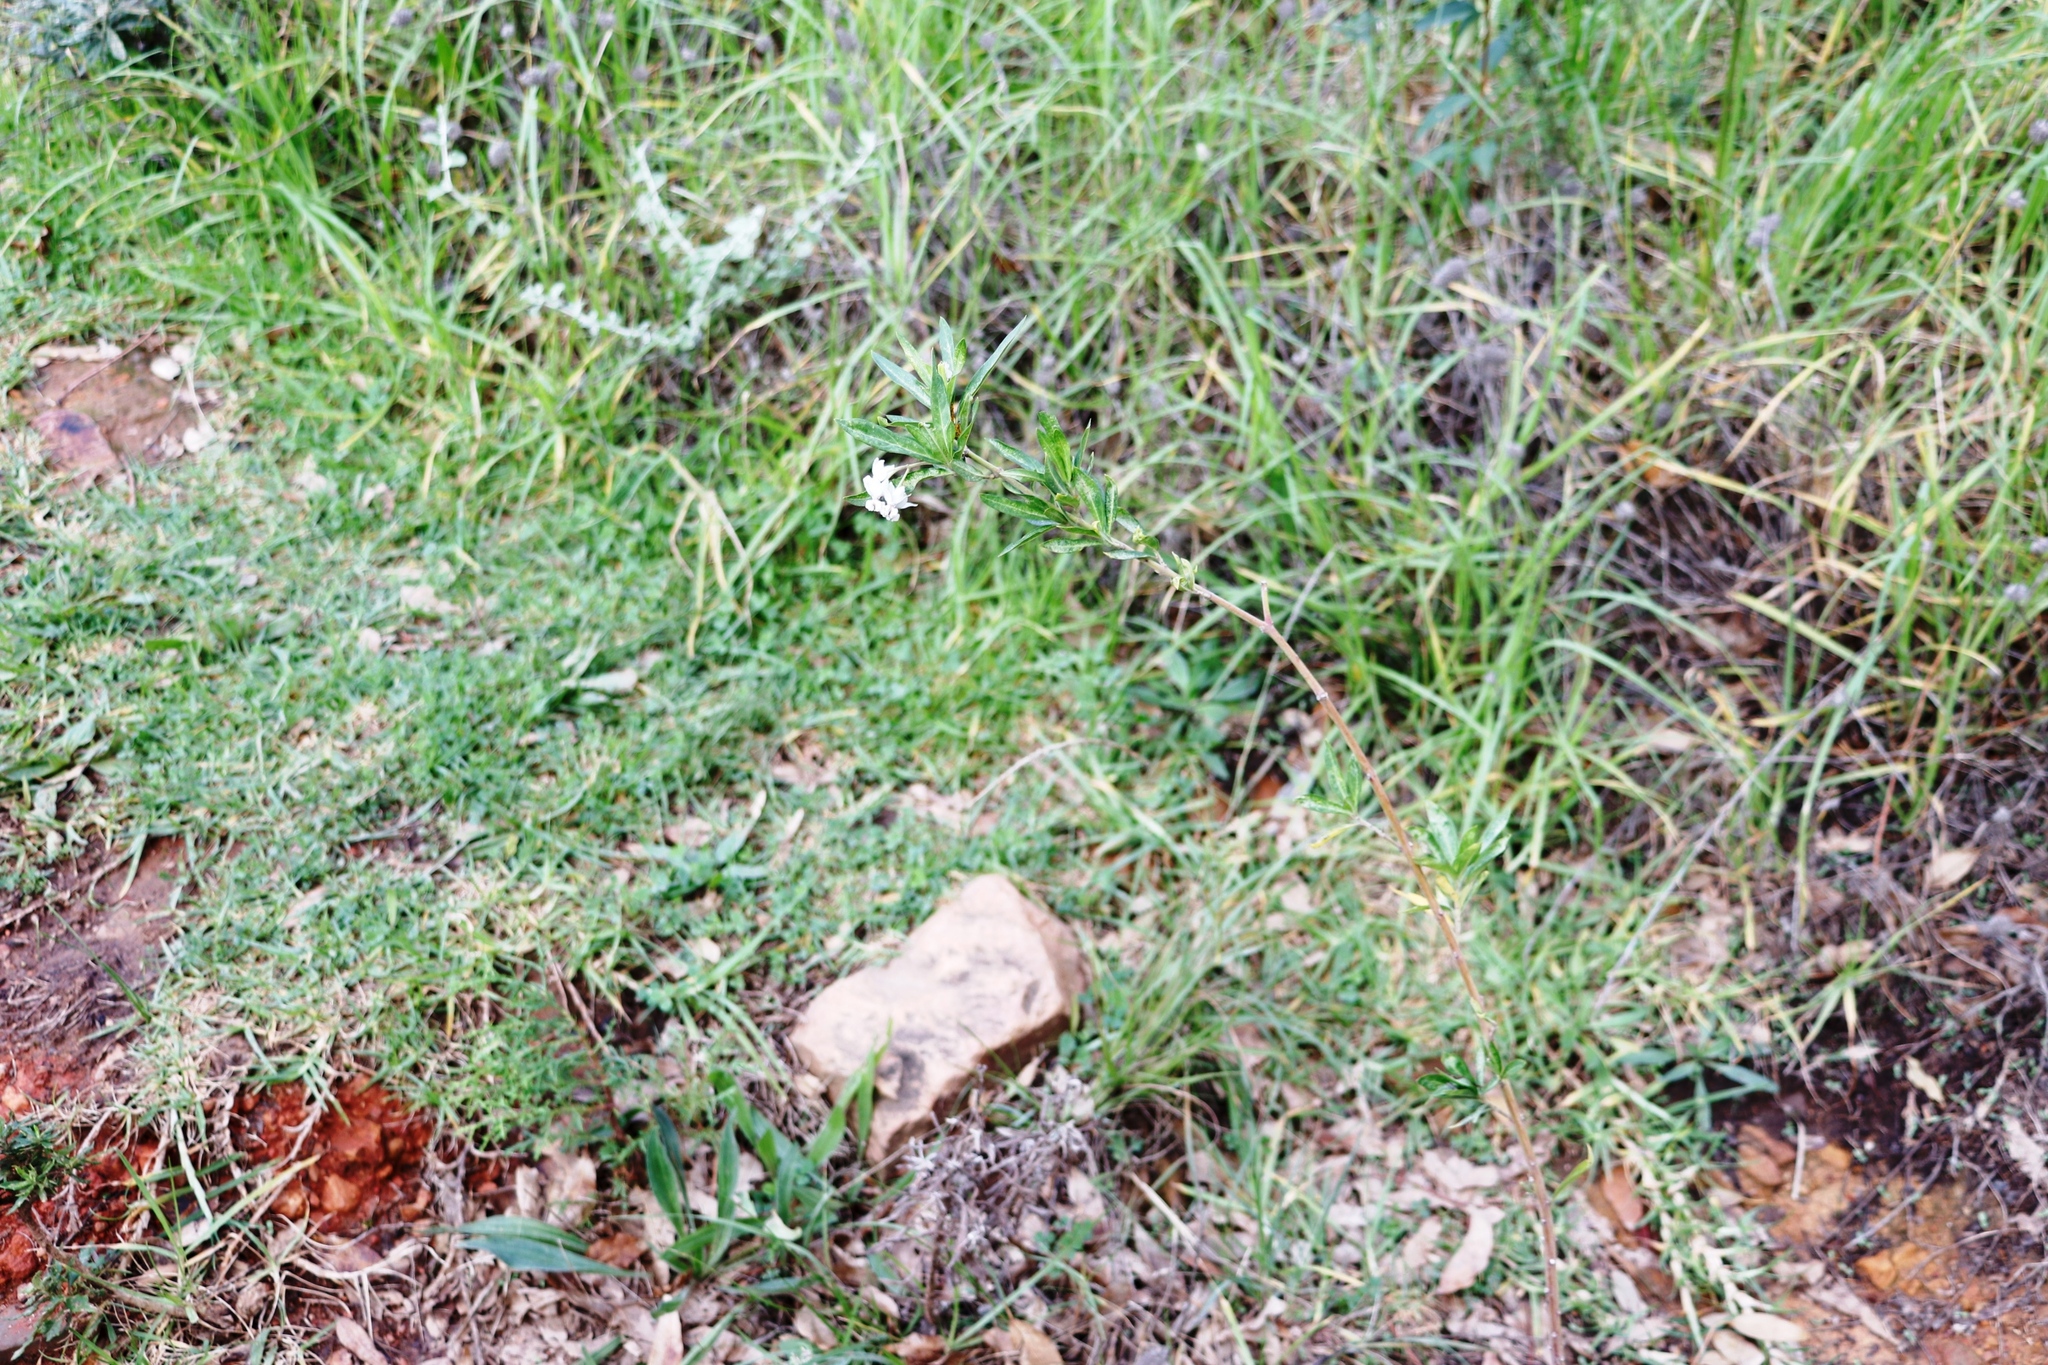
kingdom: Plantae
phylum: Tracheophyta
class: Magnoliopsida
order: Gentianales
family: Apocynaceae
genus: Gomphocarpus
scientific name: Gomphocarpus physocarpus
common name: Balloon cotton bush
